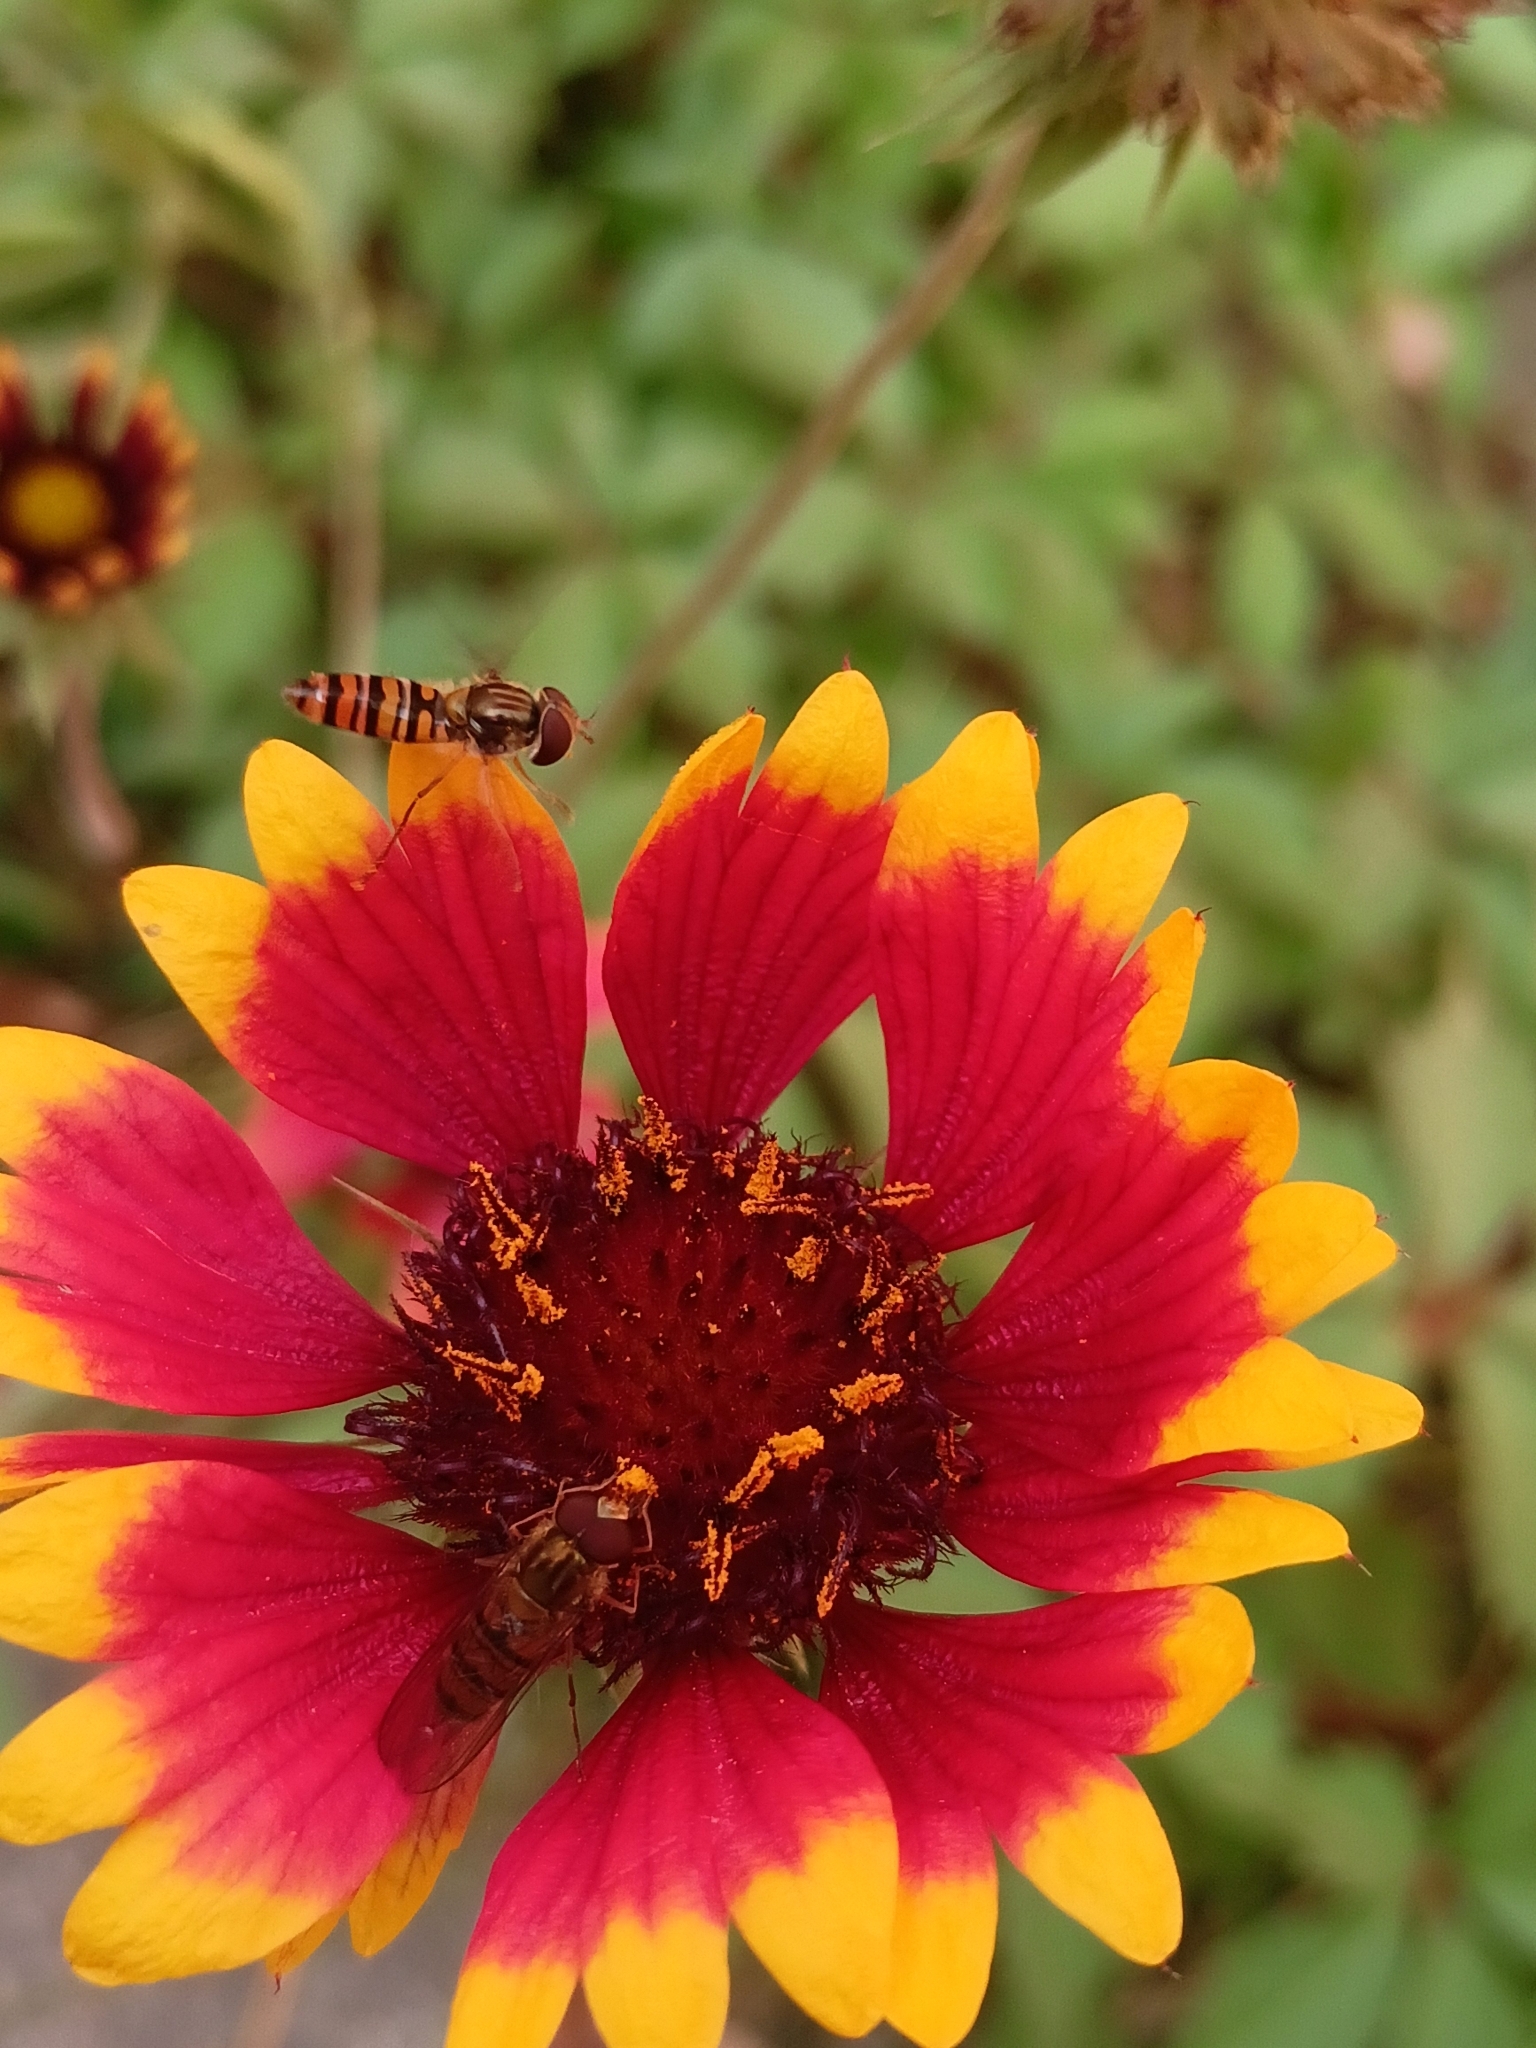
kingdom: Animalia
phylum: Arthropoda
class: Insecta
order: Diptera
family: Syrphidae
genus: Episyrphus
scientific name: Episyrphus balteatus
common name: Marmalade hoverfly
